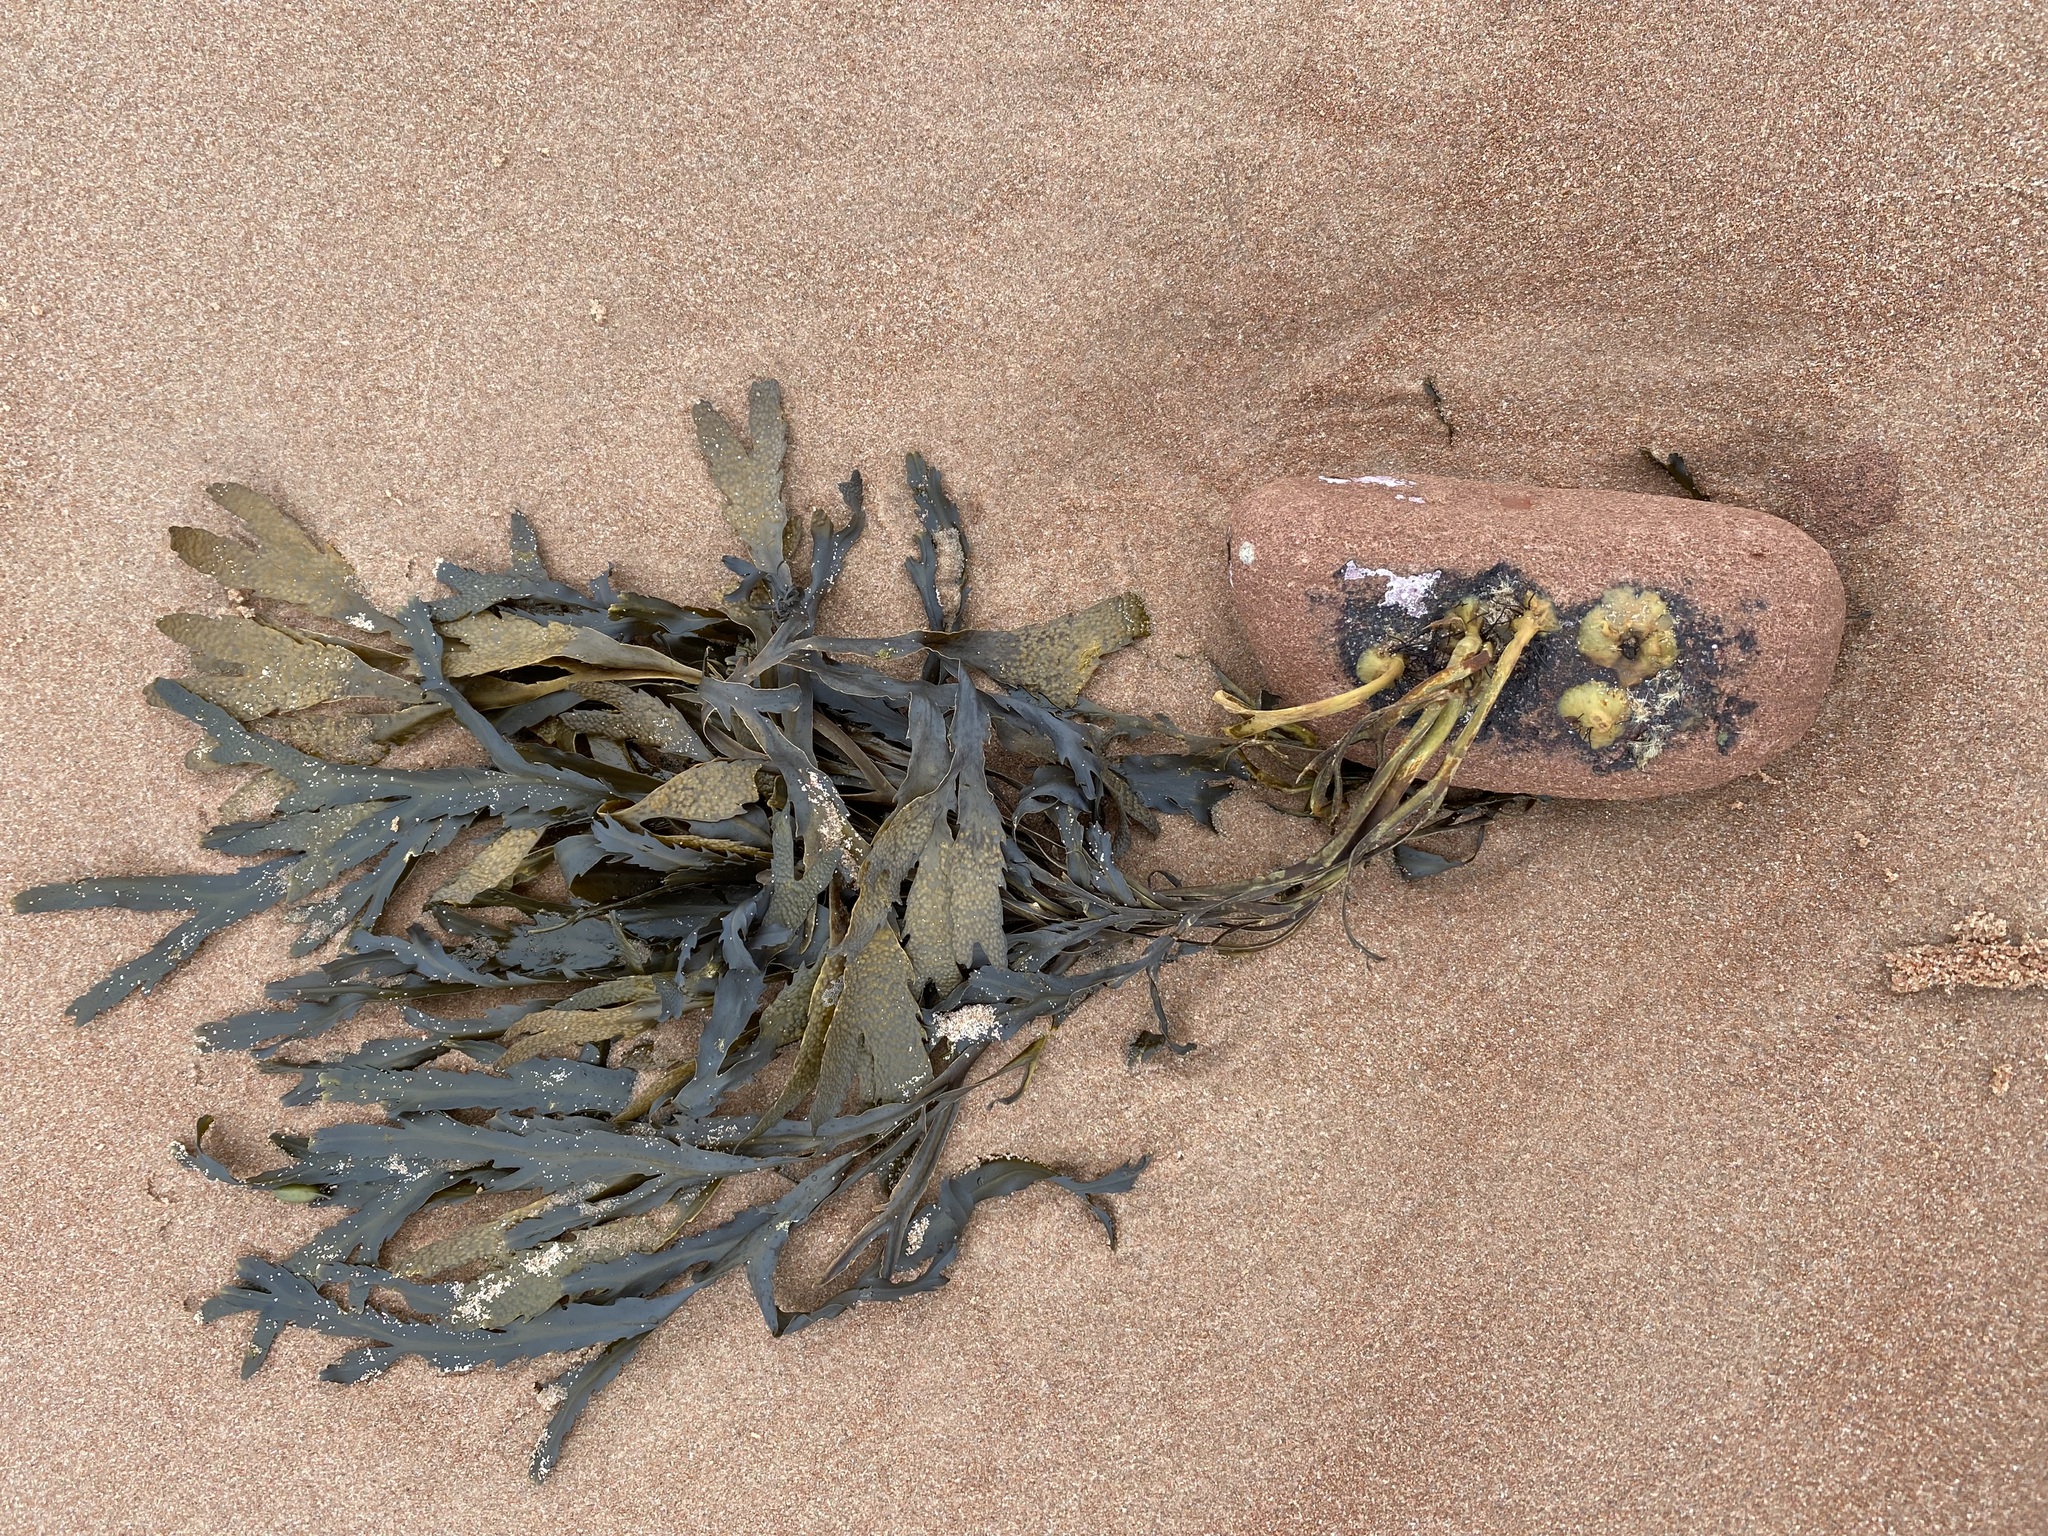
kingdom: Chromista
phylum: Ochrophyta
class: Phaeophyceae
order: Fucales
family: Fucaceae
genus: Fucus
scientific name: Fucus serratus
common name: Toothed wrack
